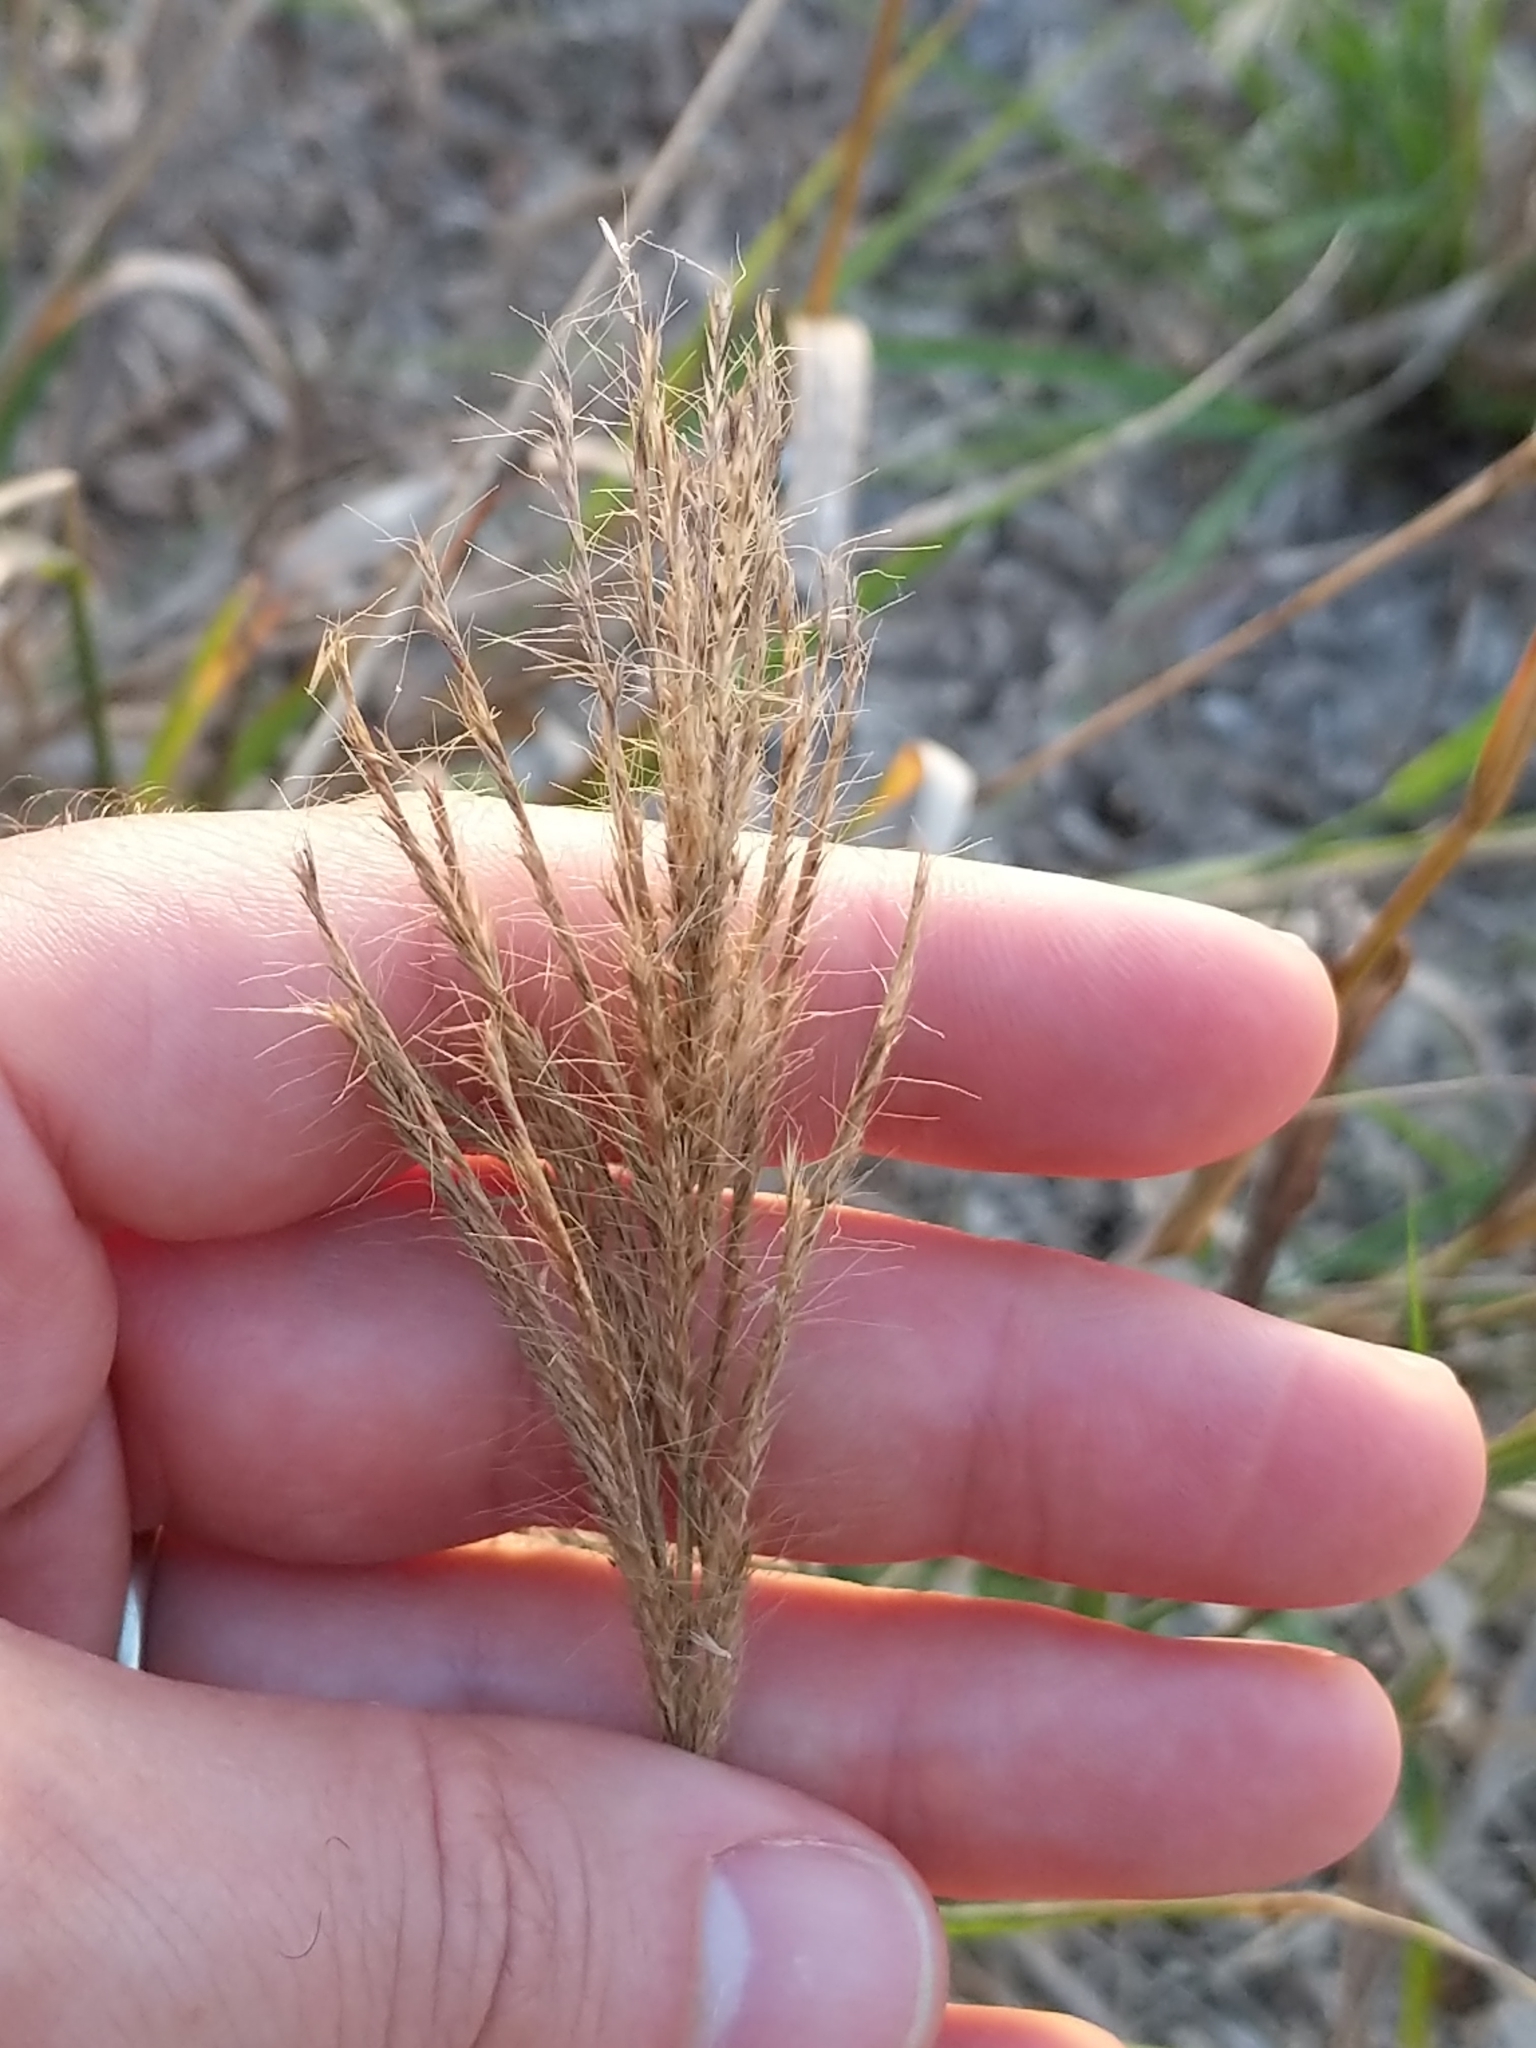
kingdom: Plantae
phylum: Tracheophyta
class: Liliopsida
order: Poales
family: Poaceae
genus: Leptochloa
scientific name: Leptochloa pluriflora
